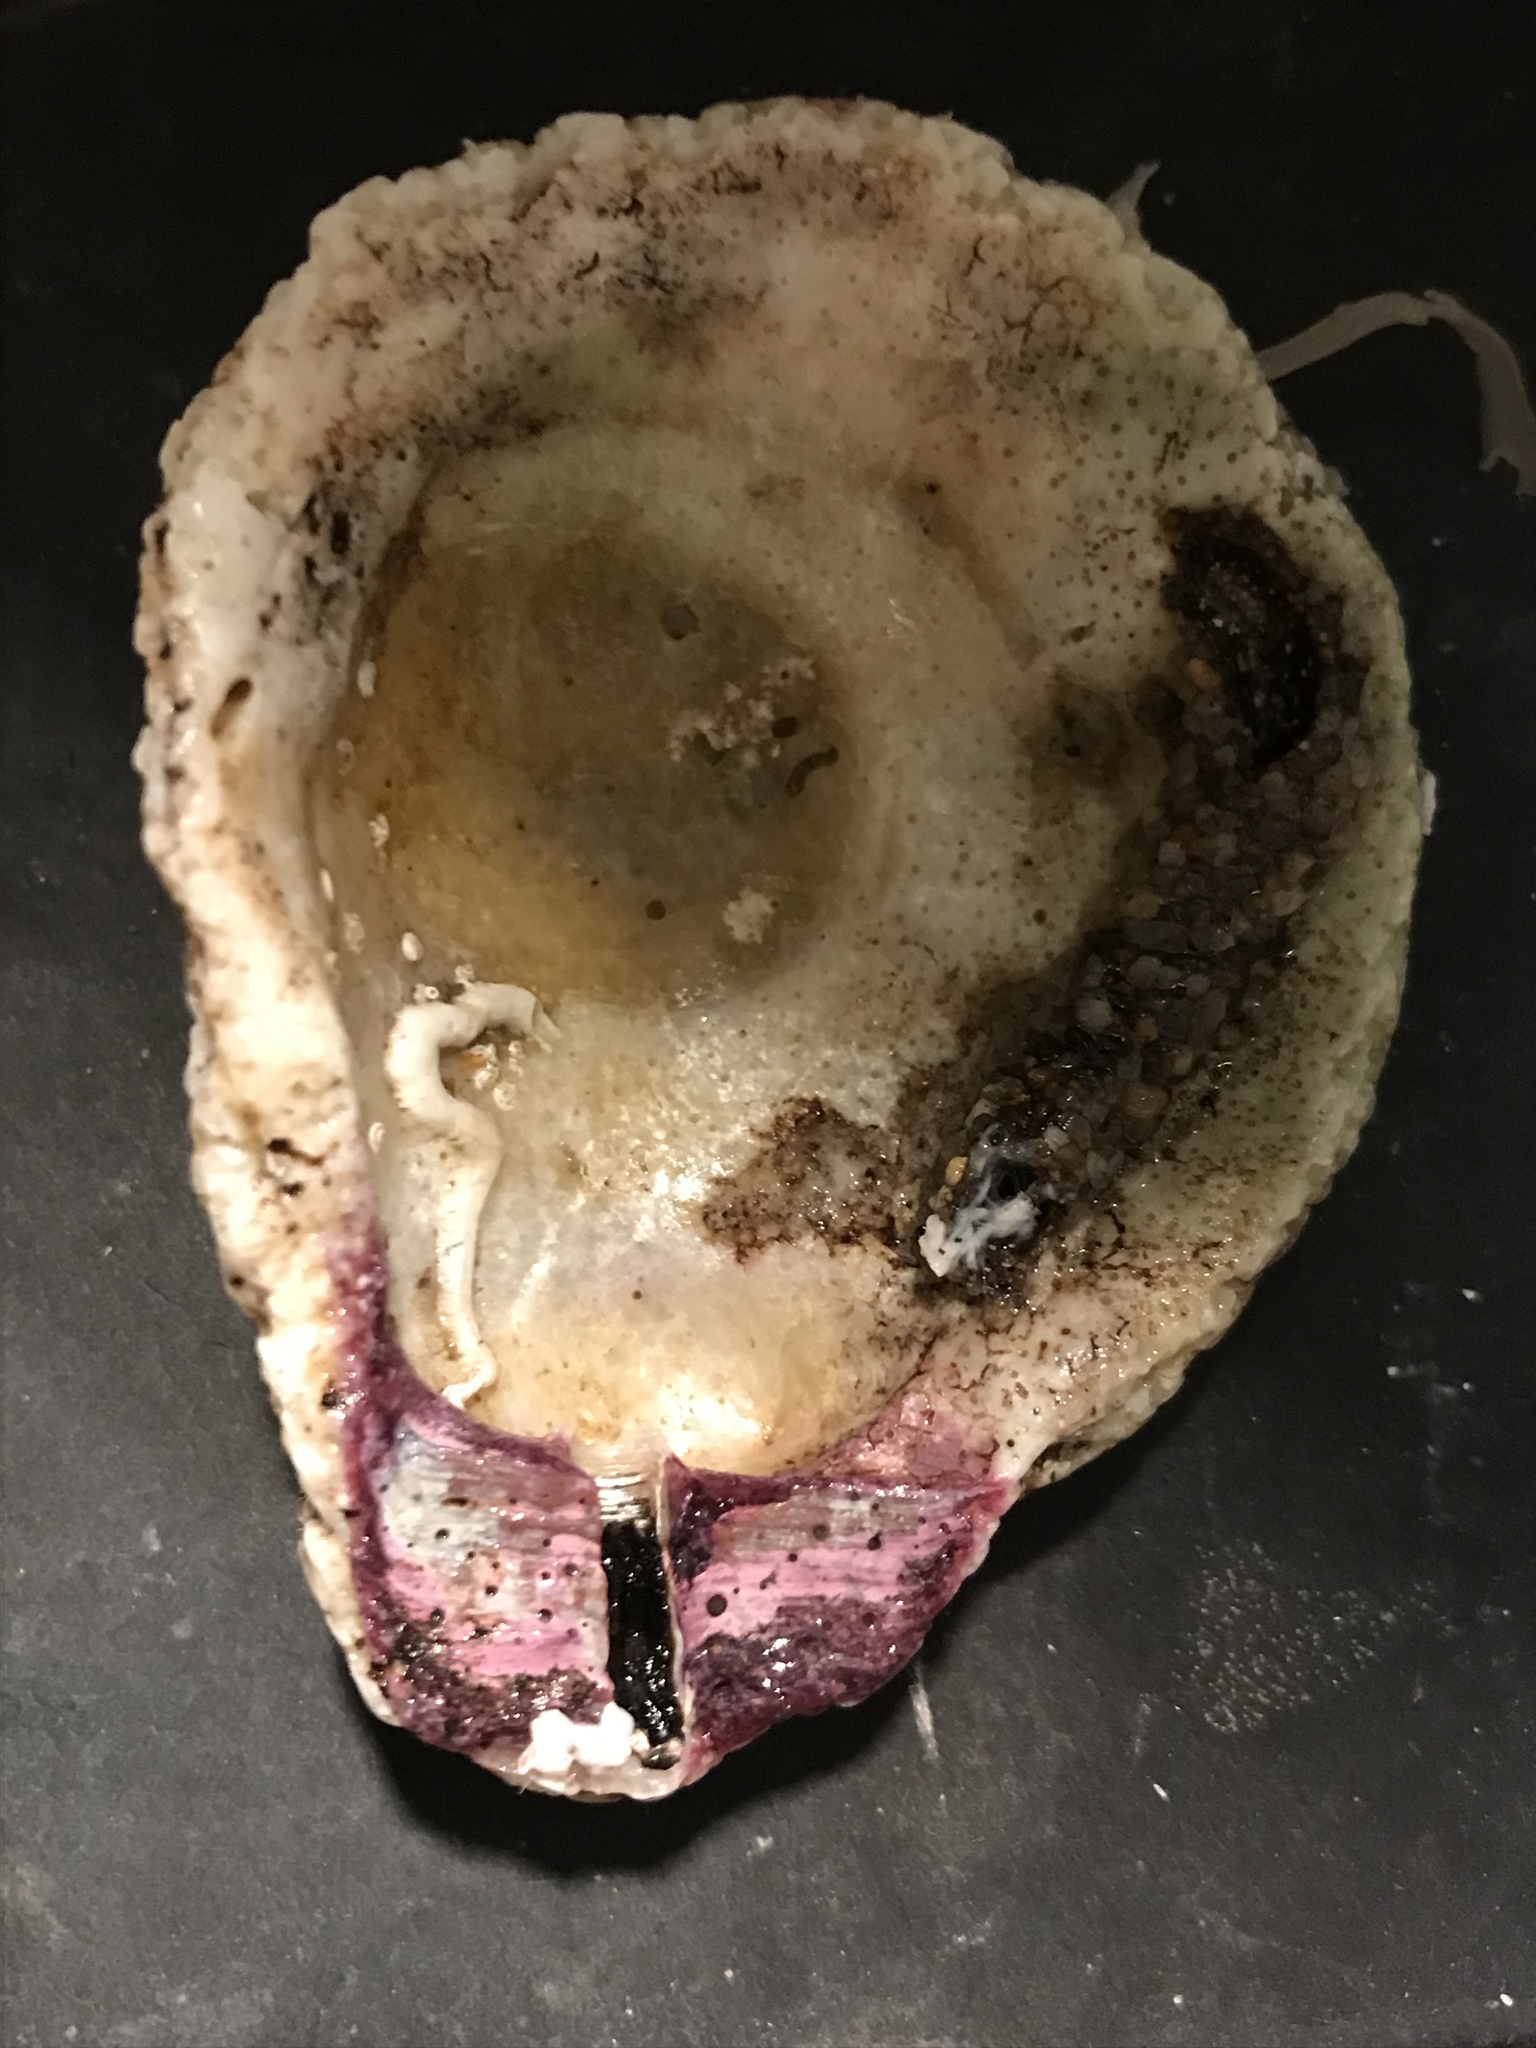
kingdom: Animalia
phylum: Mollusca
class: Bivalvia
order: Pectinida
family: Pectinidae
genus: Crassadoma
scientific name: Crassadoma gigantea
